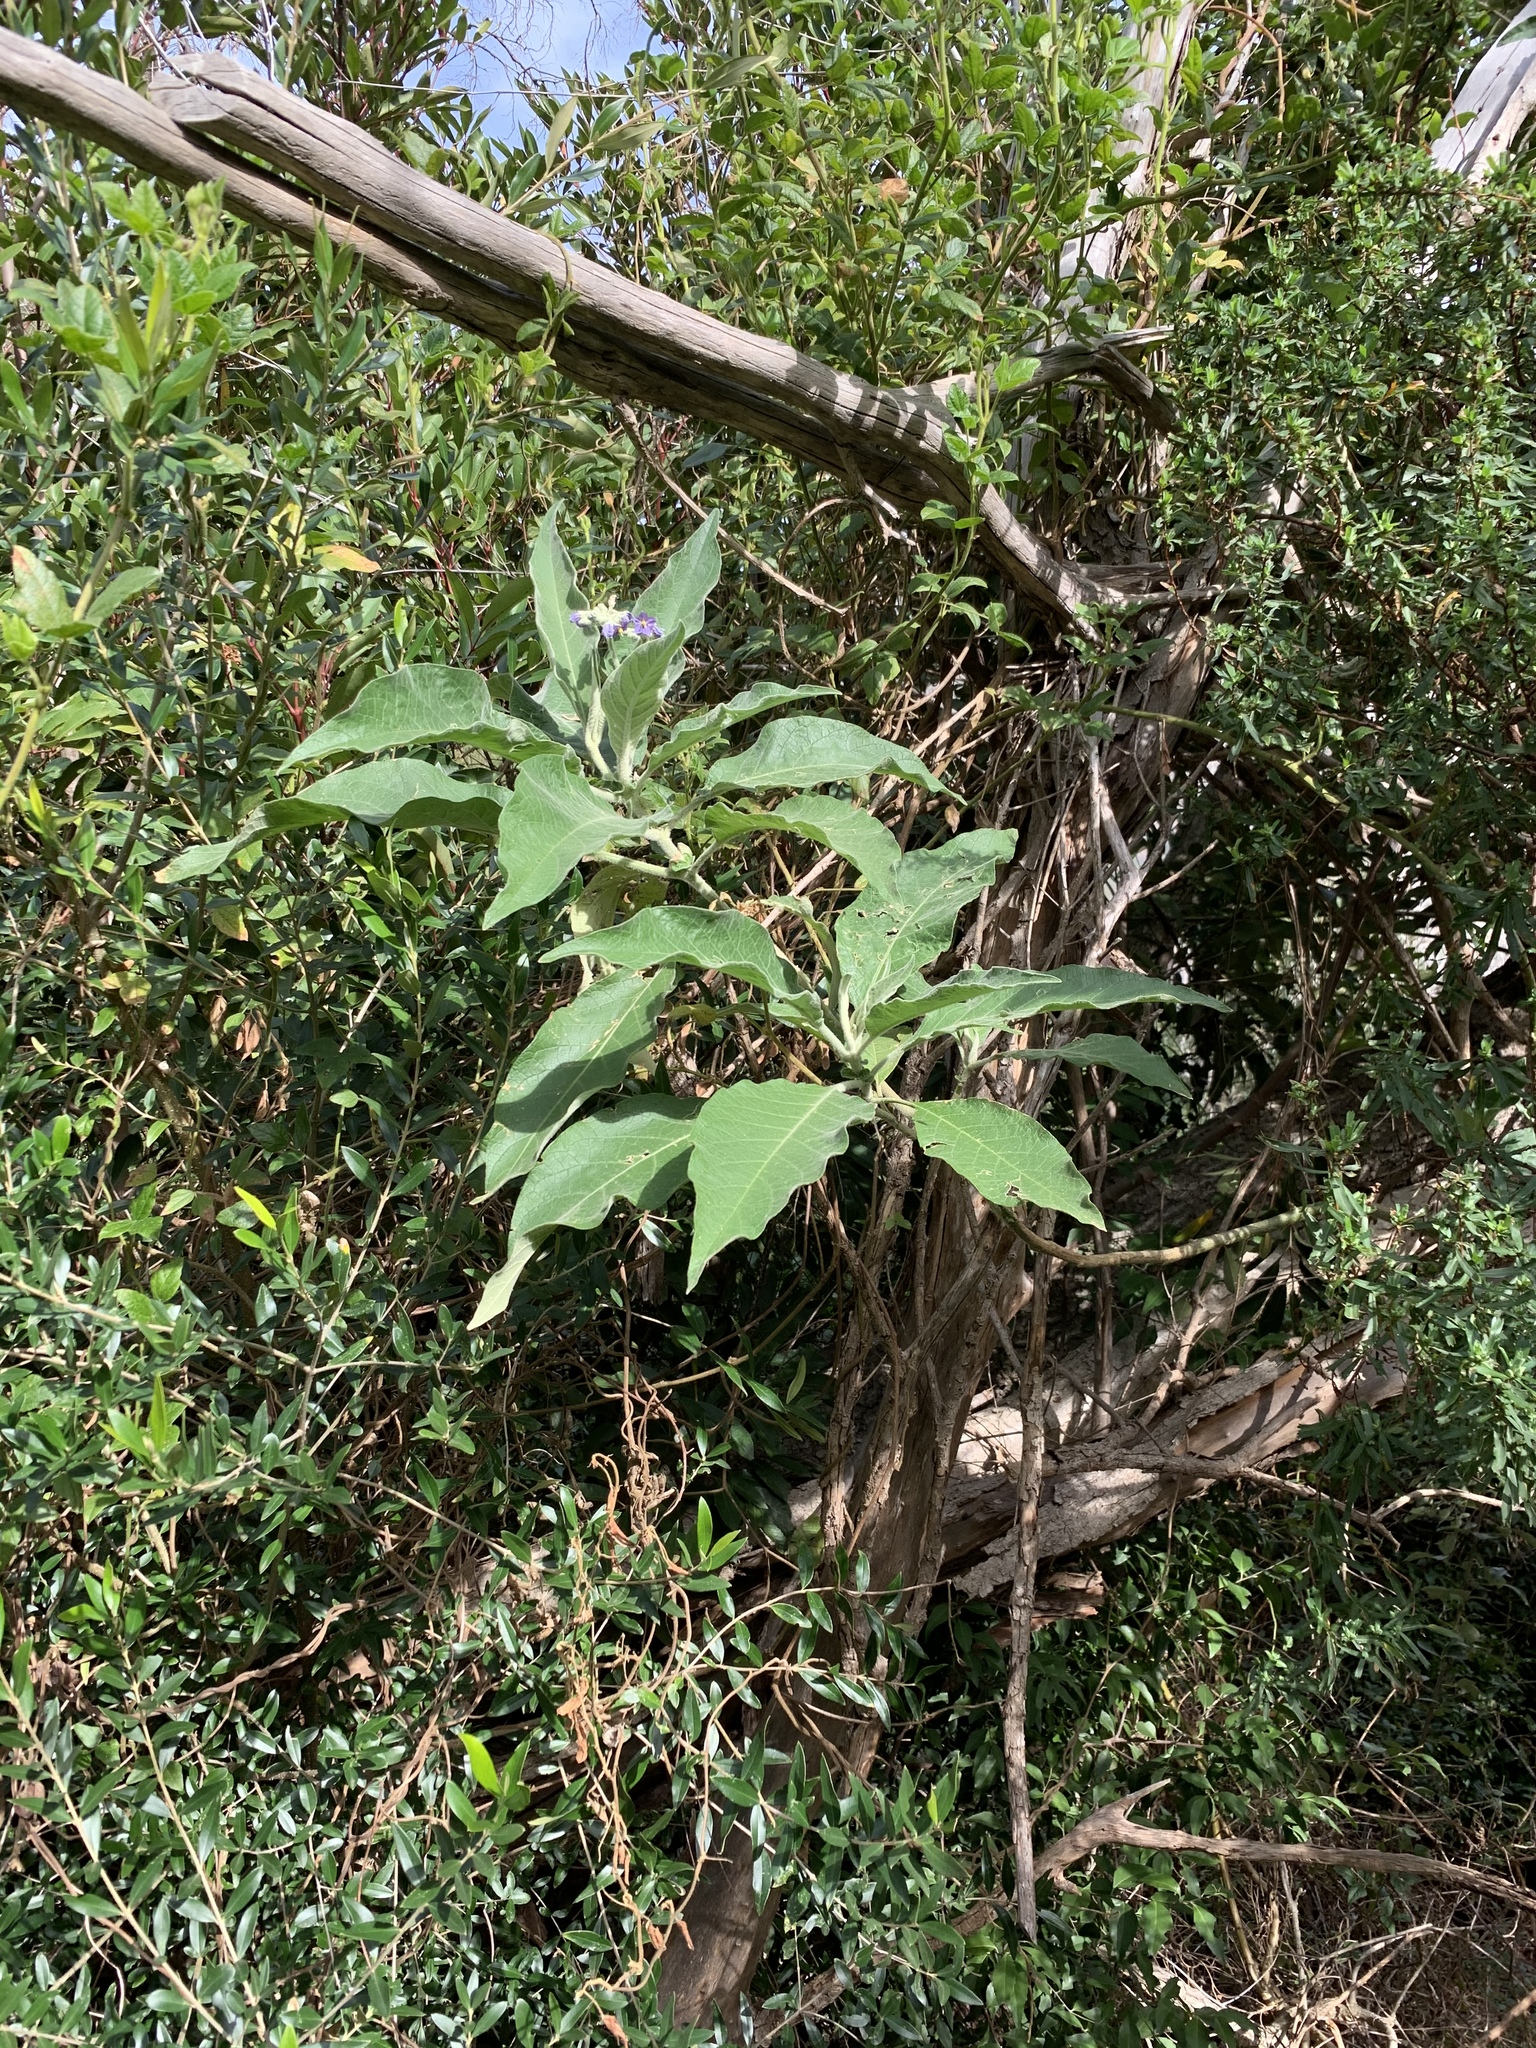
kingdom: Plantae
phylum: Tracheophyta
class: Magnoliopsida
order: Solanales
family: Solanaceae
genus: Solanum
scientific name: Solanum mauritianum
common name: Earleaf nightshade
